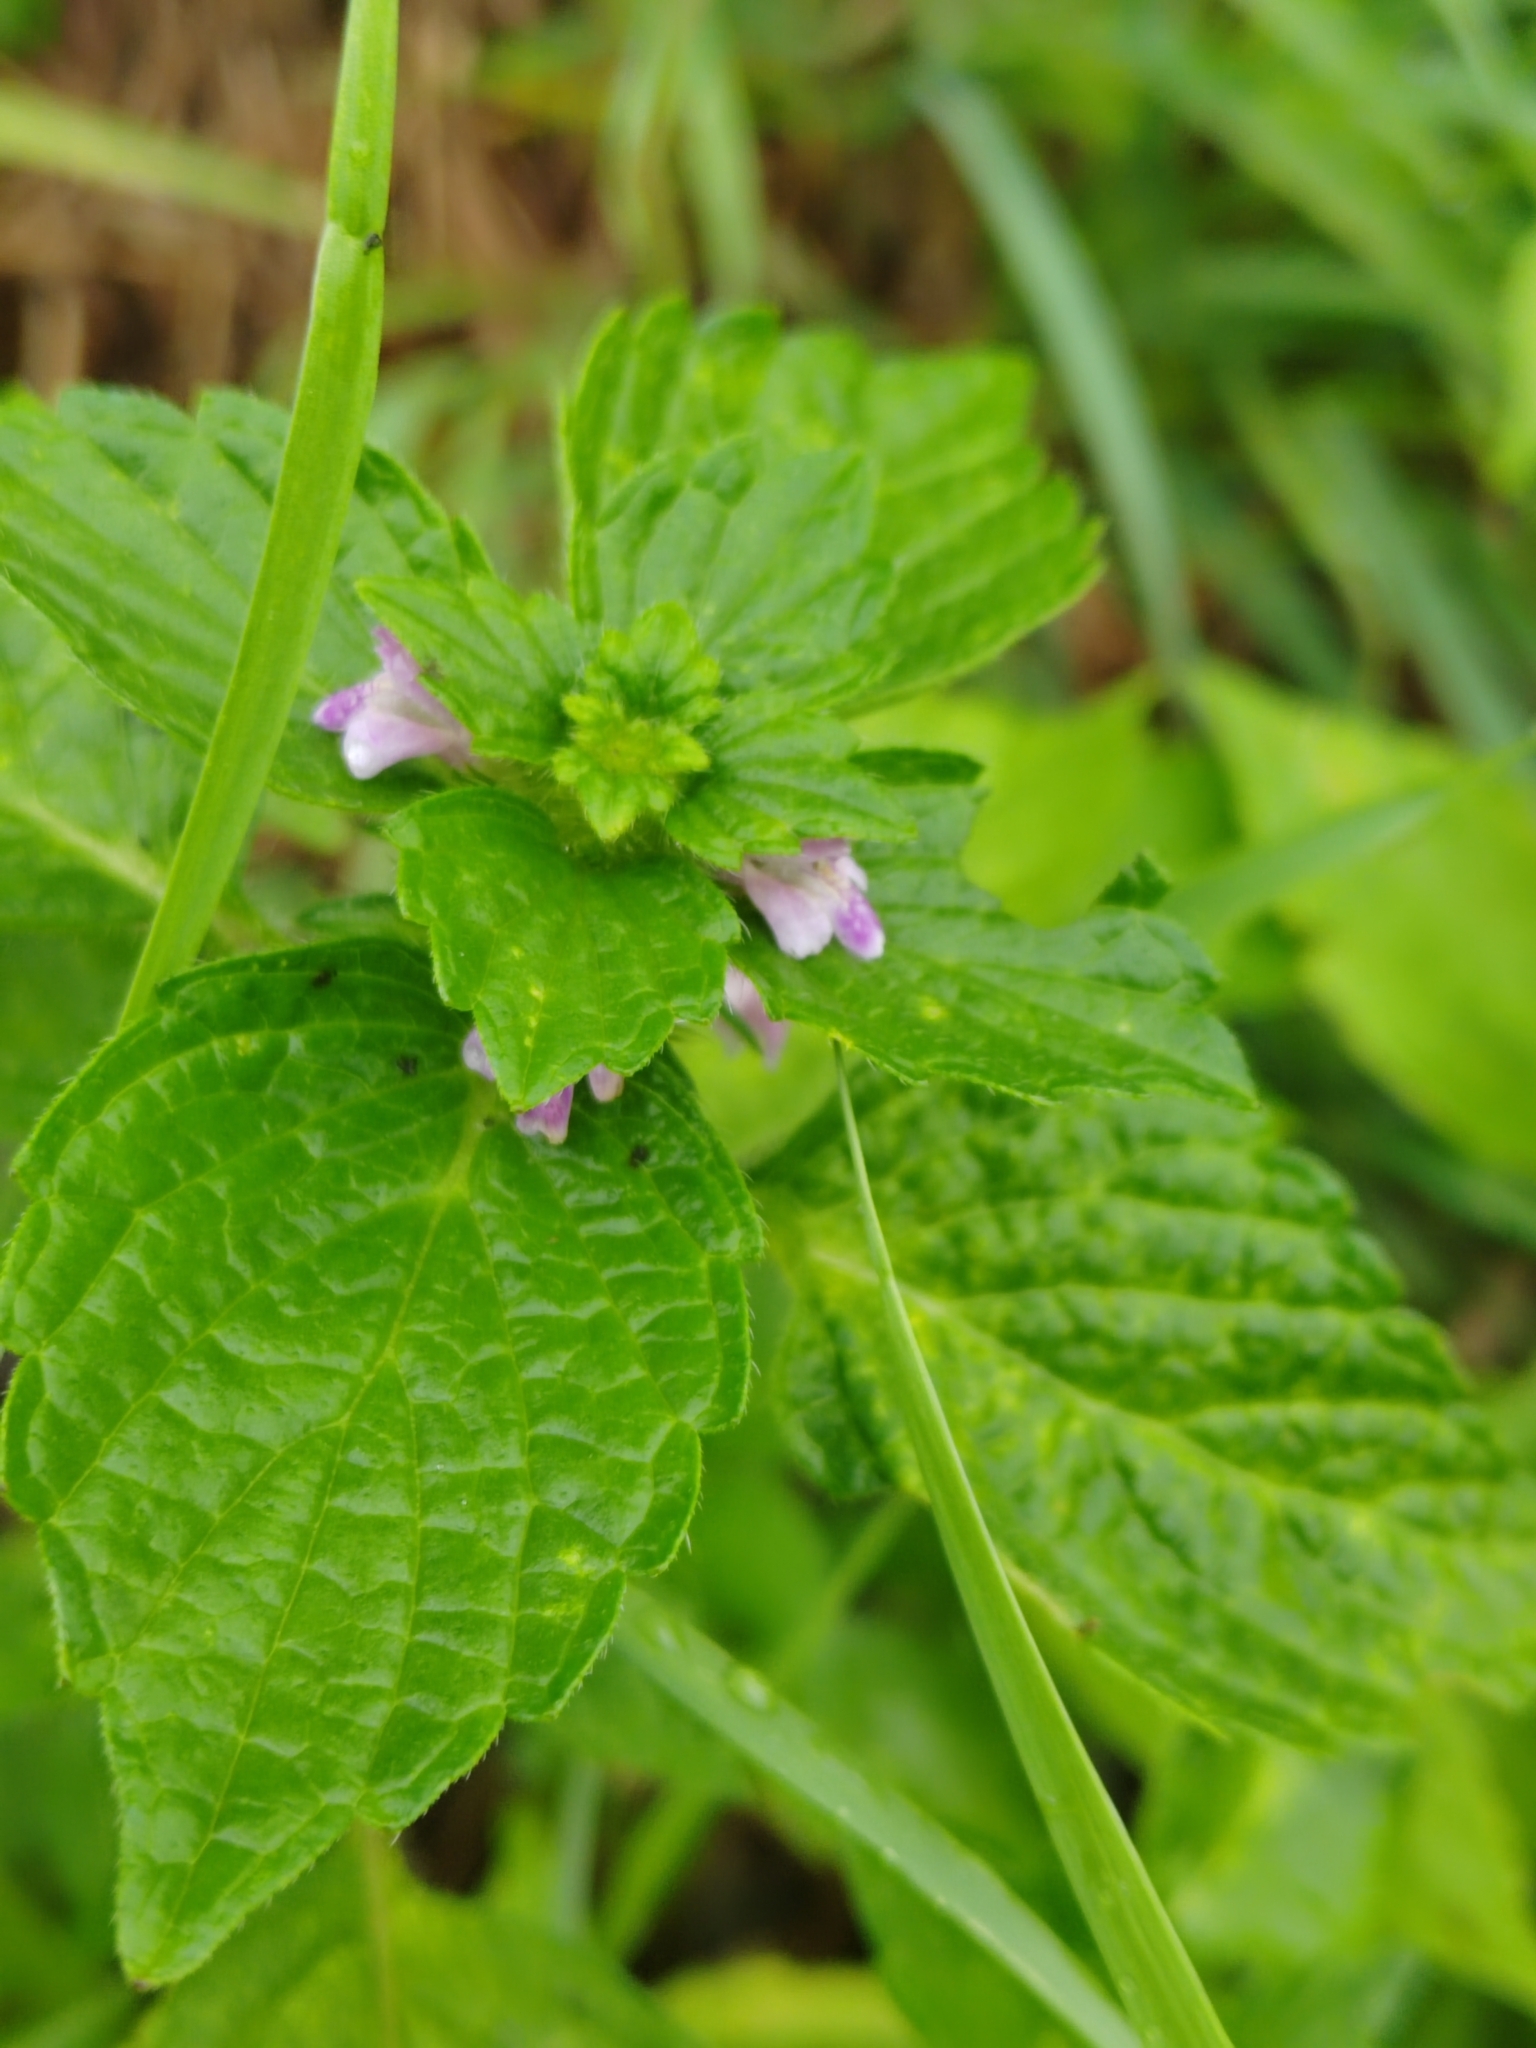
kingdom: Plantae
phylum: Tracheophyta
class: Magnoliopsida
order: Lamiales
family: Lamiaceae
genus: Galeopsis
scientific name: Galeopsis bifida
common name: Bifid hemp-nettle
